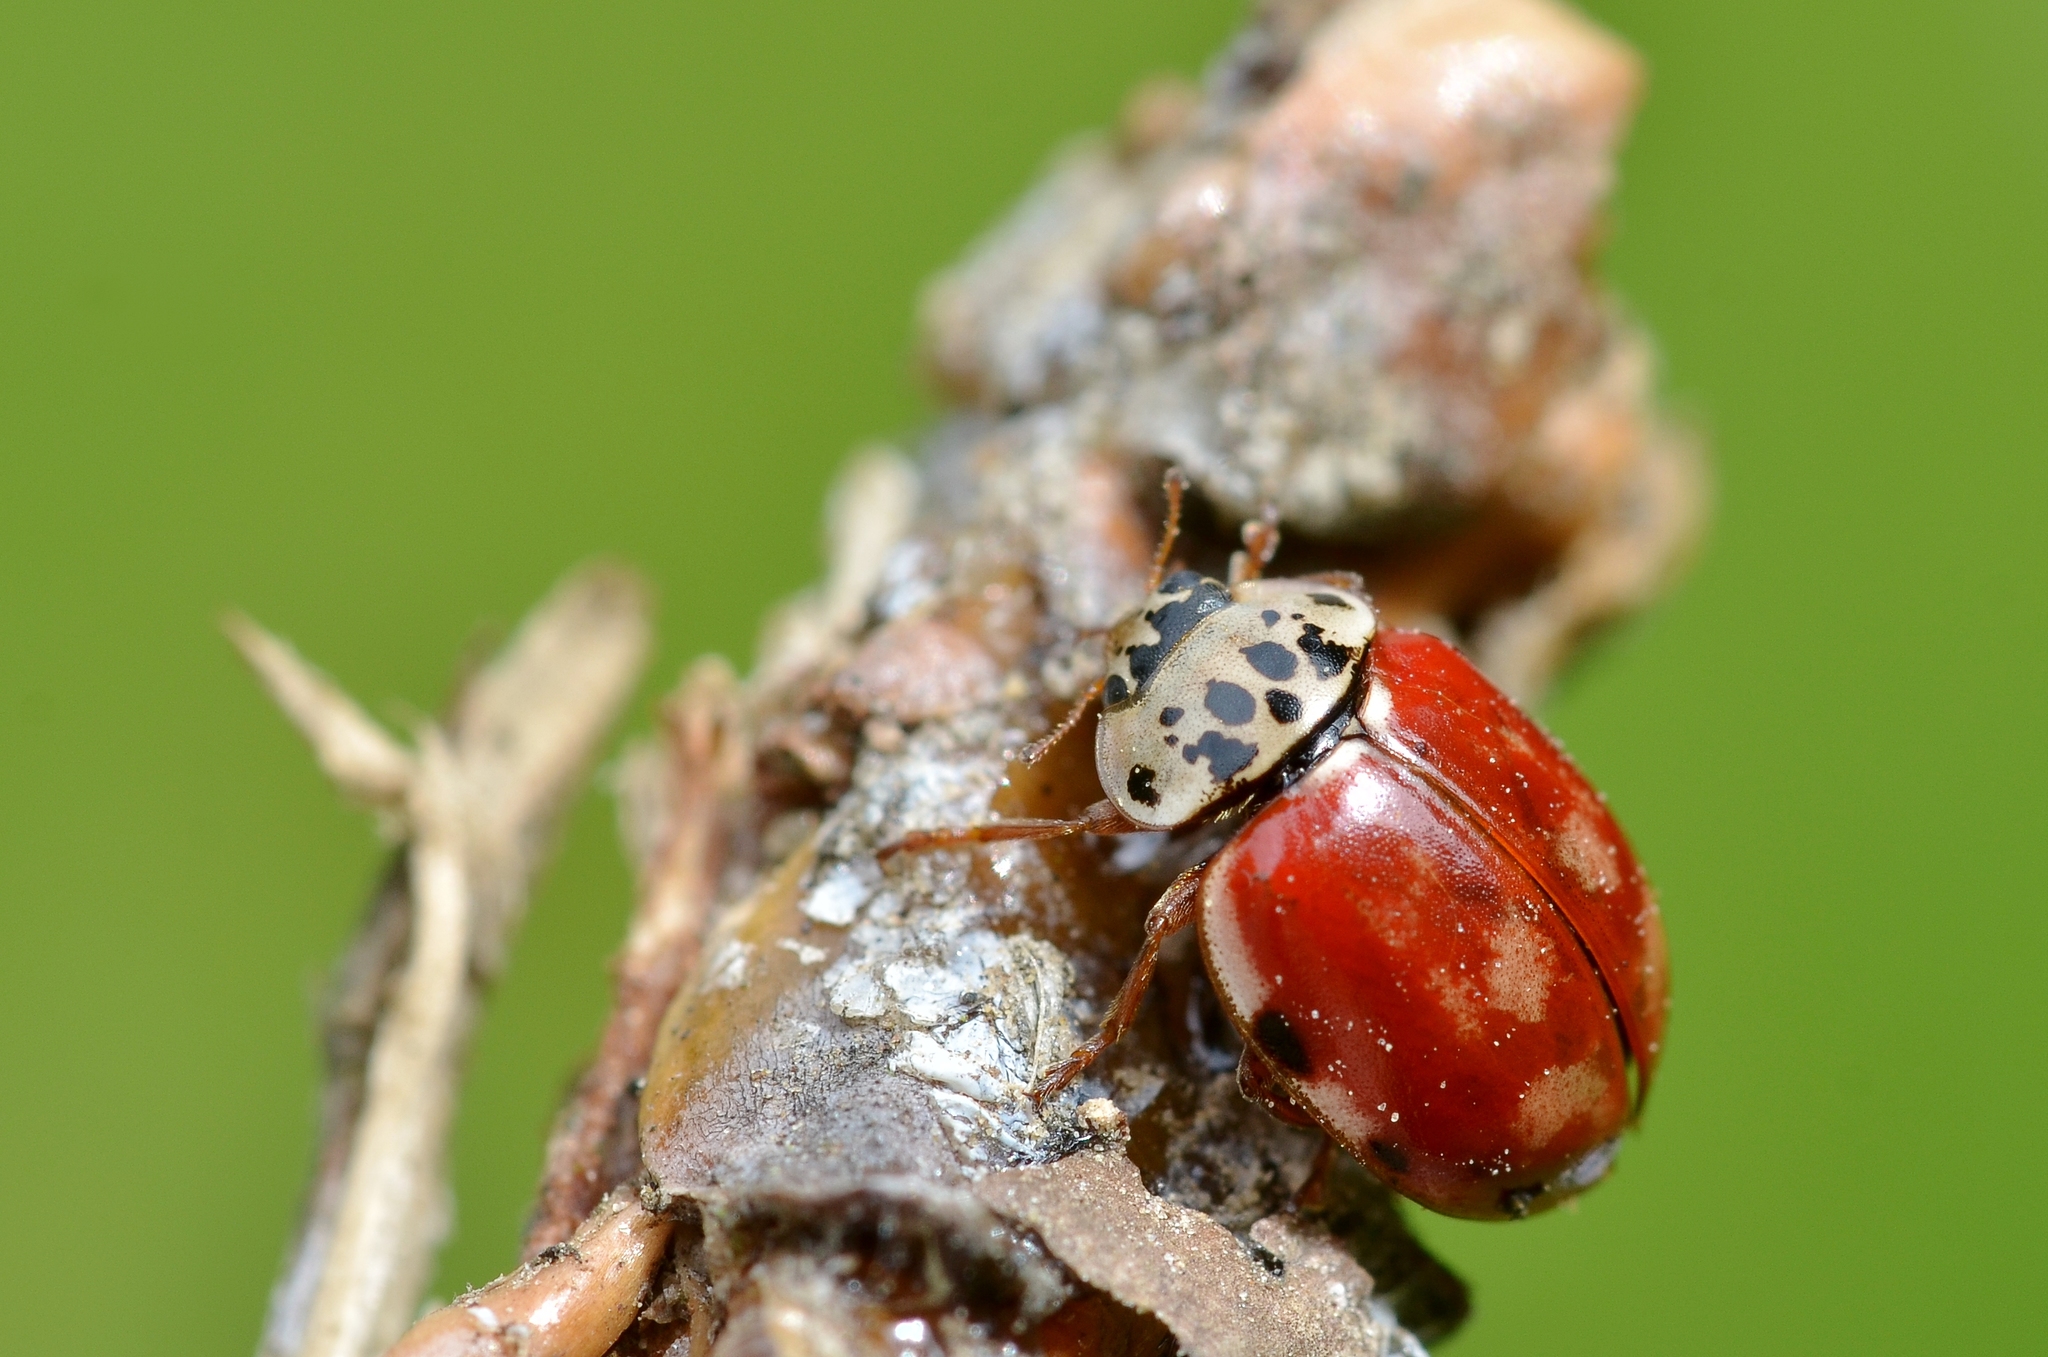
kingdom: Animalia
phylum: Arthropoda
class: Insecta
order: Coleoptera
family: Coccinellidae
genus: Harmonia
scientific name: Harmonia quadripunctata
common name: Cream-streaked ladybird
